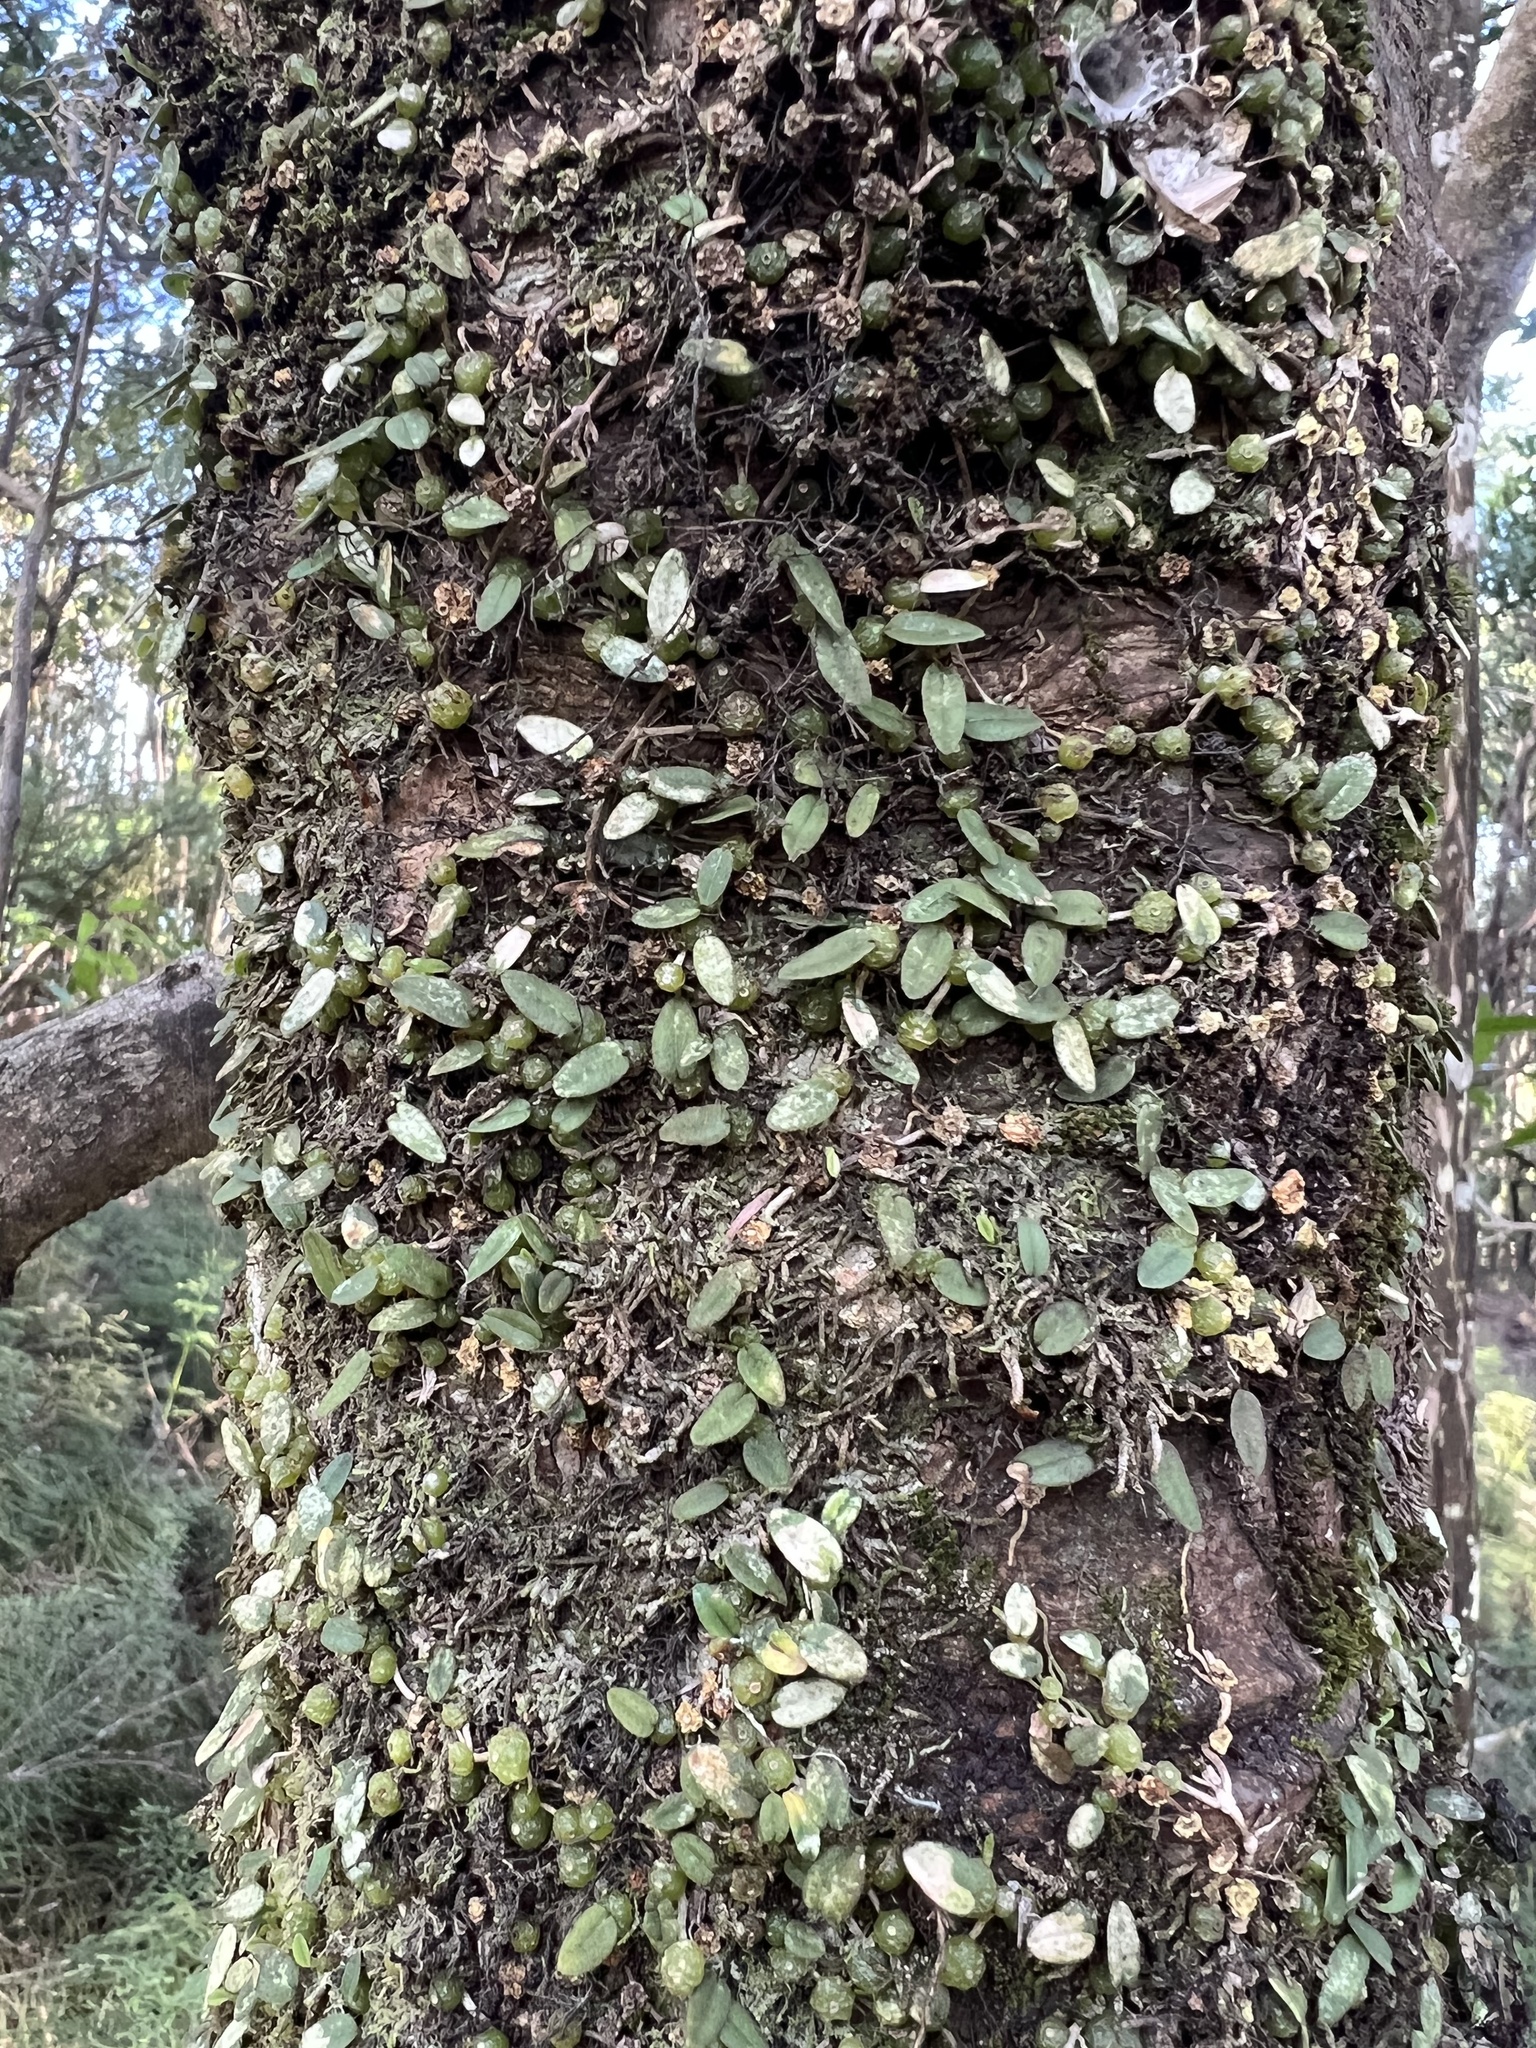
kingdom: Plantae
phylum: Tracheophyta
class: Liliopsida
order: Asparagales
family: Orchidaceae
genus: Bulbophyllum
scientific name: Bulbophyllum pygmaeum
